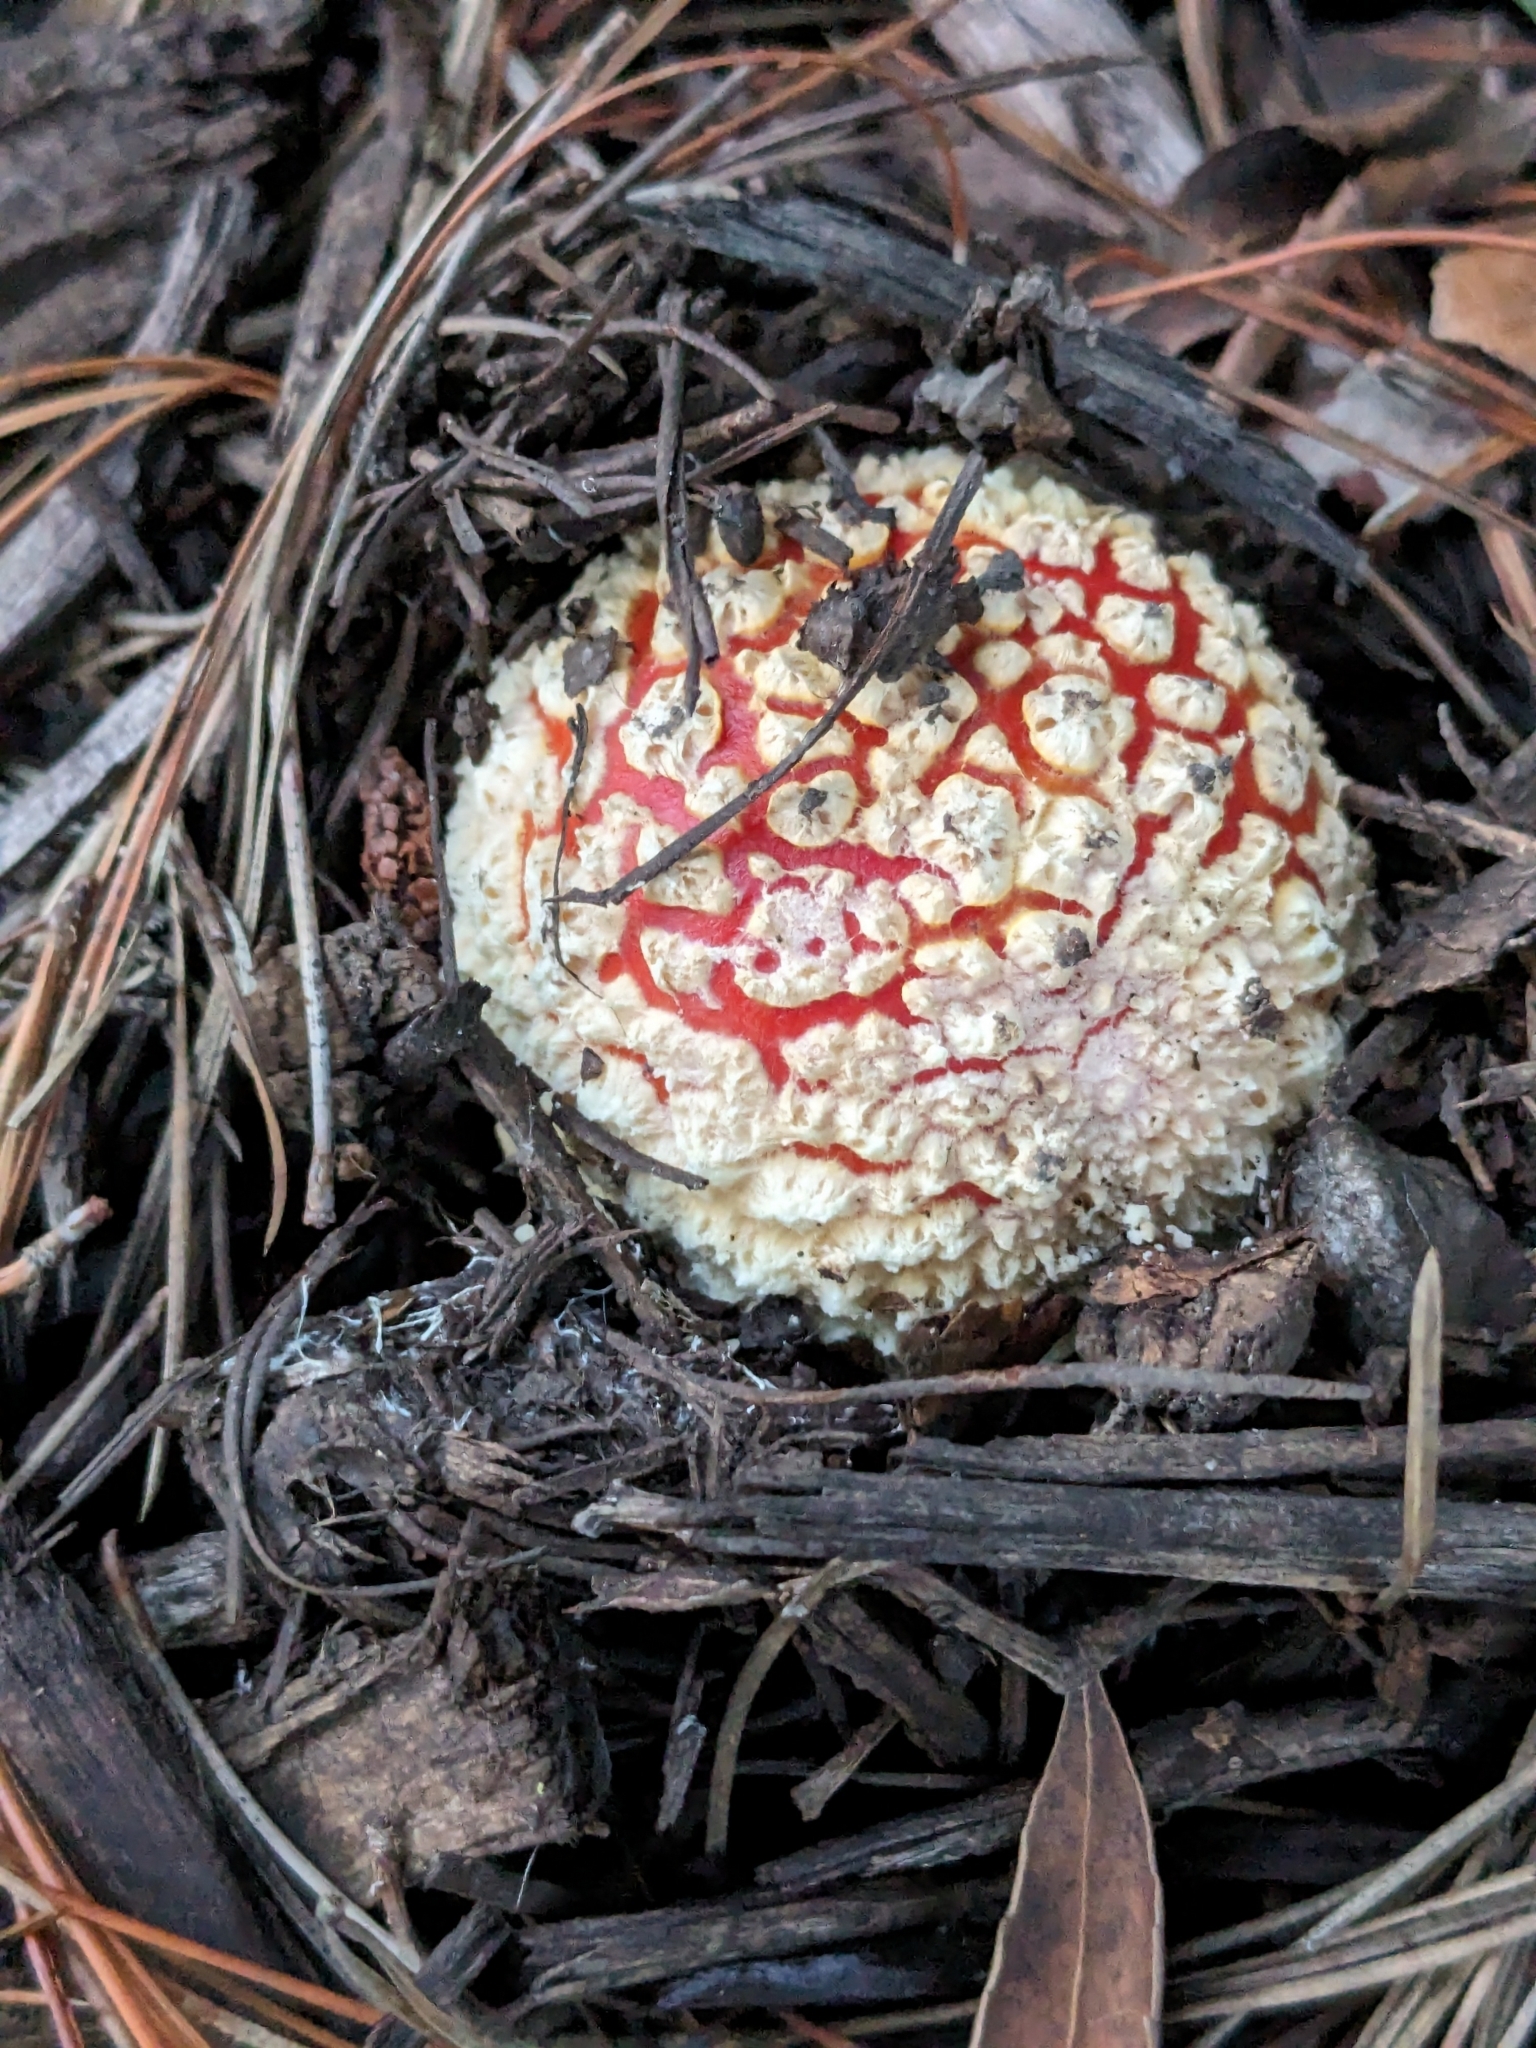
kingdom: Fungi
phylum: Basidiomycota
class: Agaricomycetes
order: Agaricales
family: Amanitaceae
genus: Amanita
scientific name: Amanita muscaria
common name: Fly agaric
